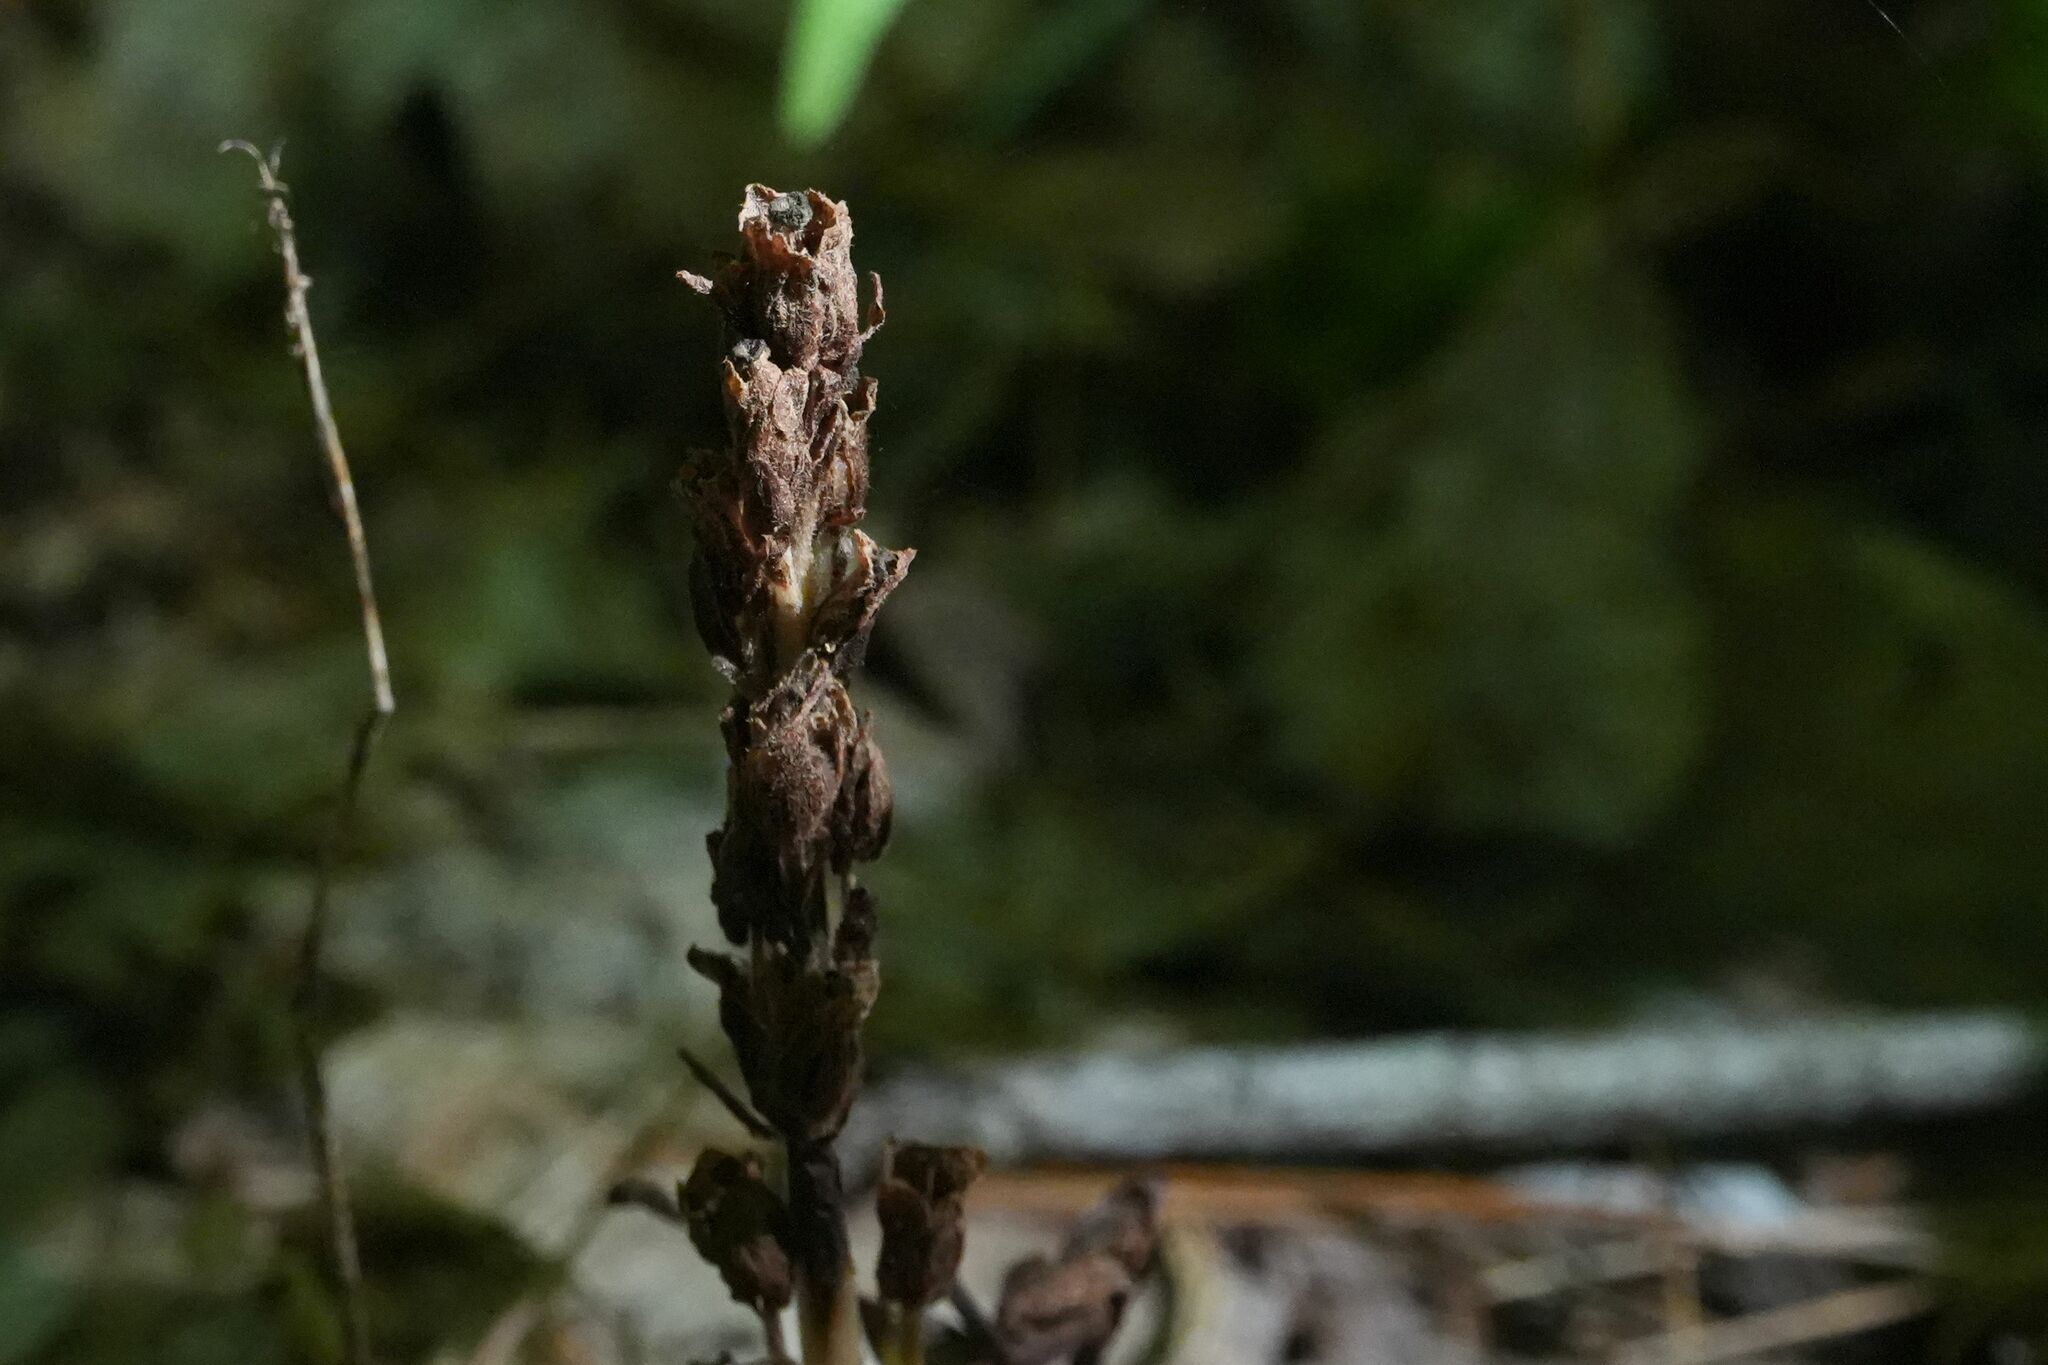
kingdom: Plantae
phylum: Tracheophyta
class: Magnoliopsida
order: Ericales
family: Ericaceae
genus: Hypopitys
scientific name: Hypopitys monotropa
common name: Yellow bird's-nest
